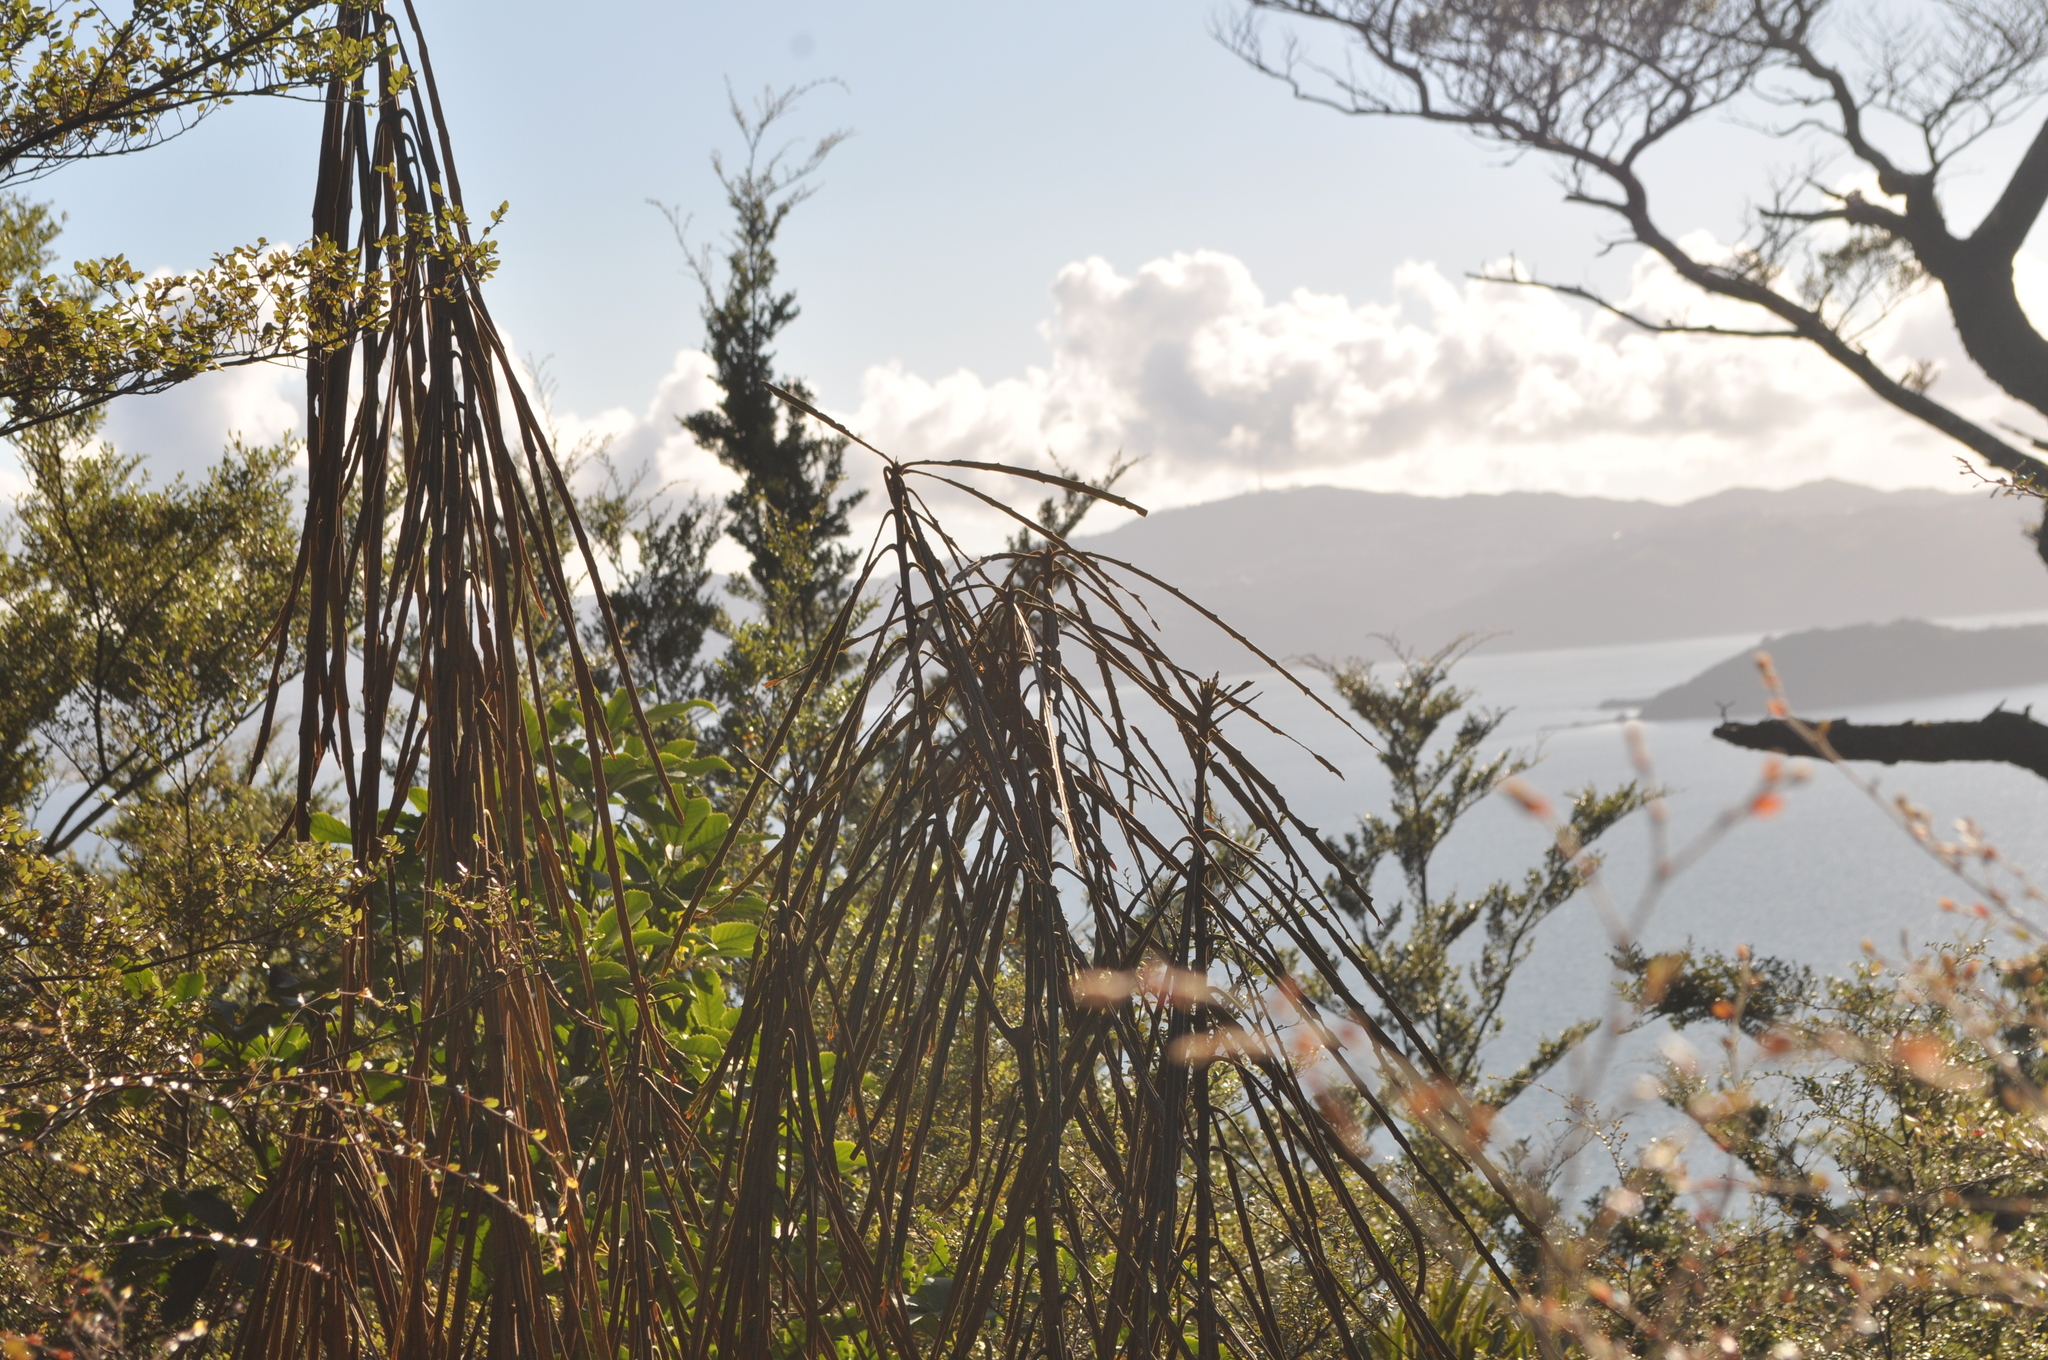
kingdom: Plantae
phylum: Tracheophyta
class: Magnoliopsida
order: Apiales
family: Araliaceae
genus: Pseudopanax
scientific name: Pseudopanax crassifolius
